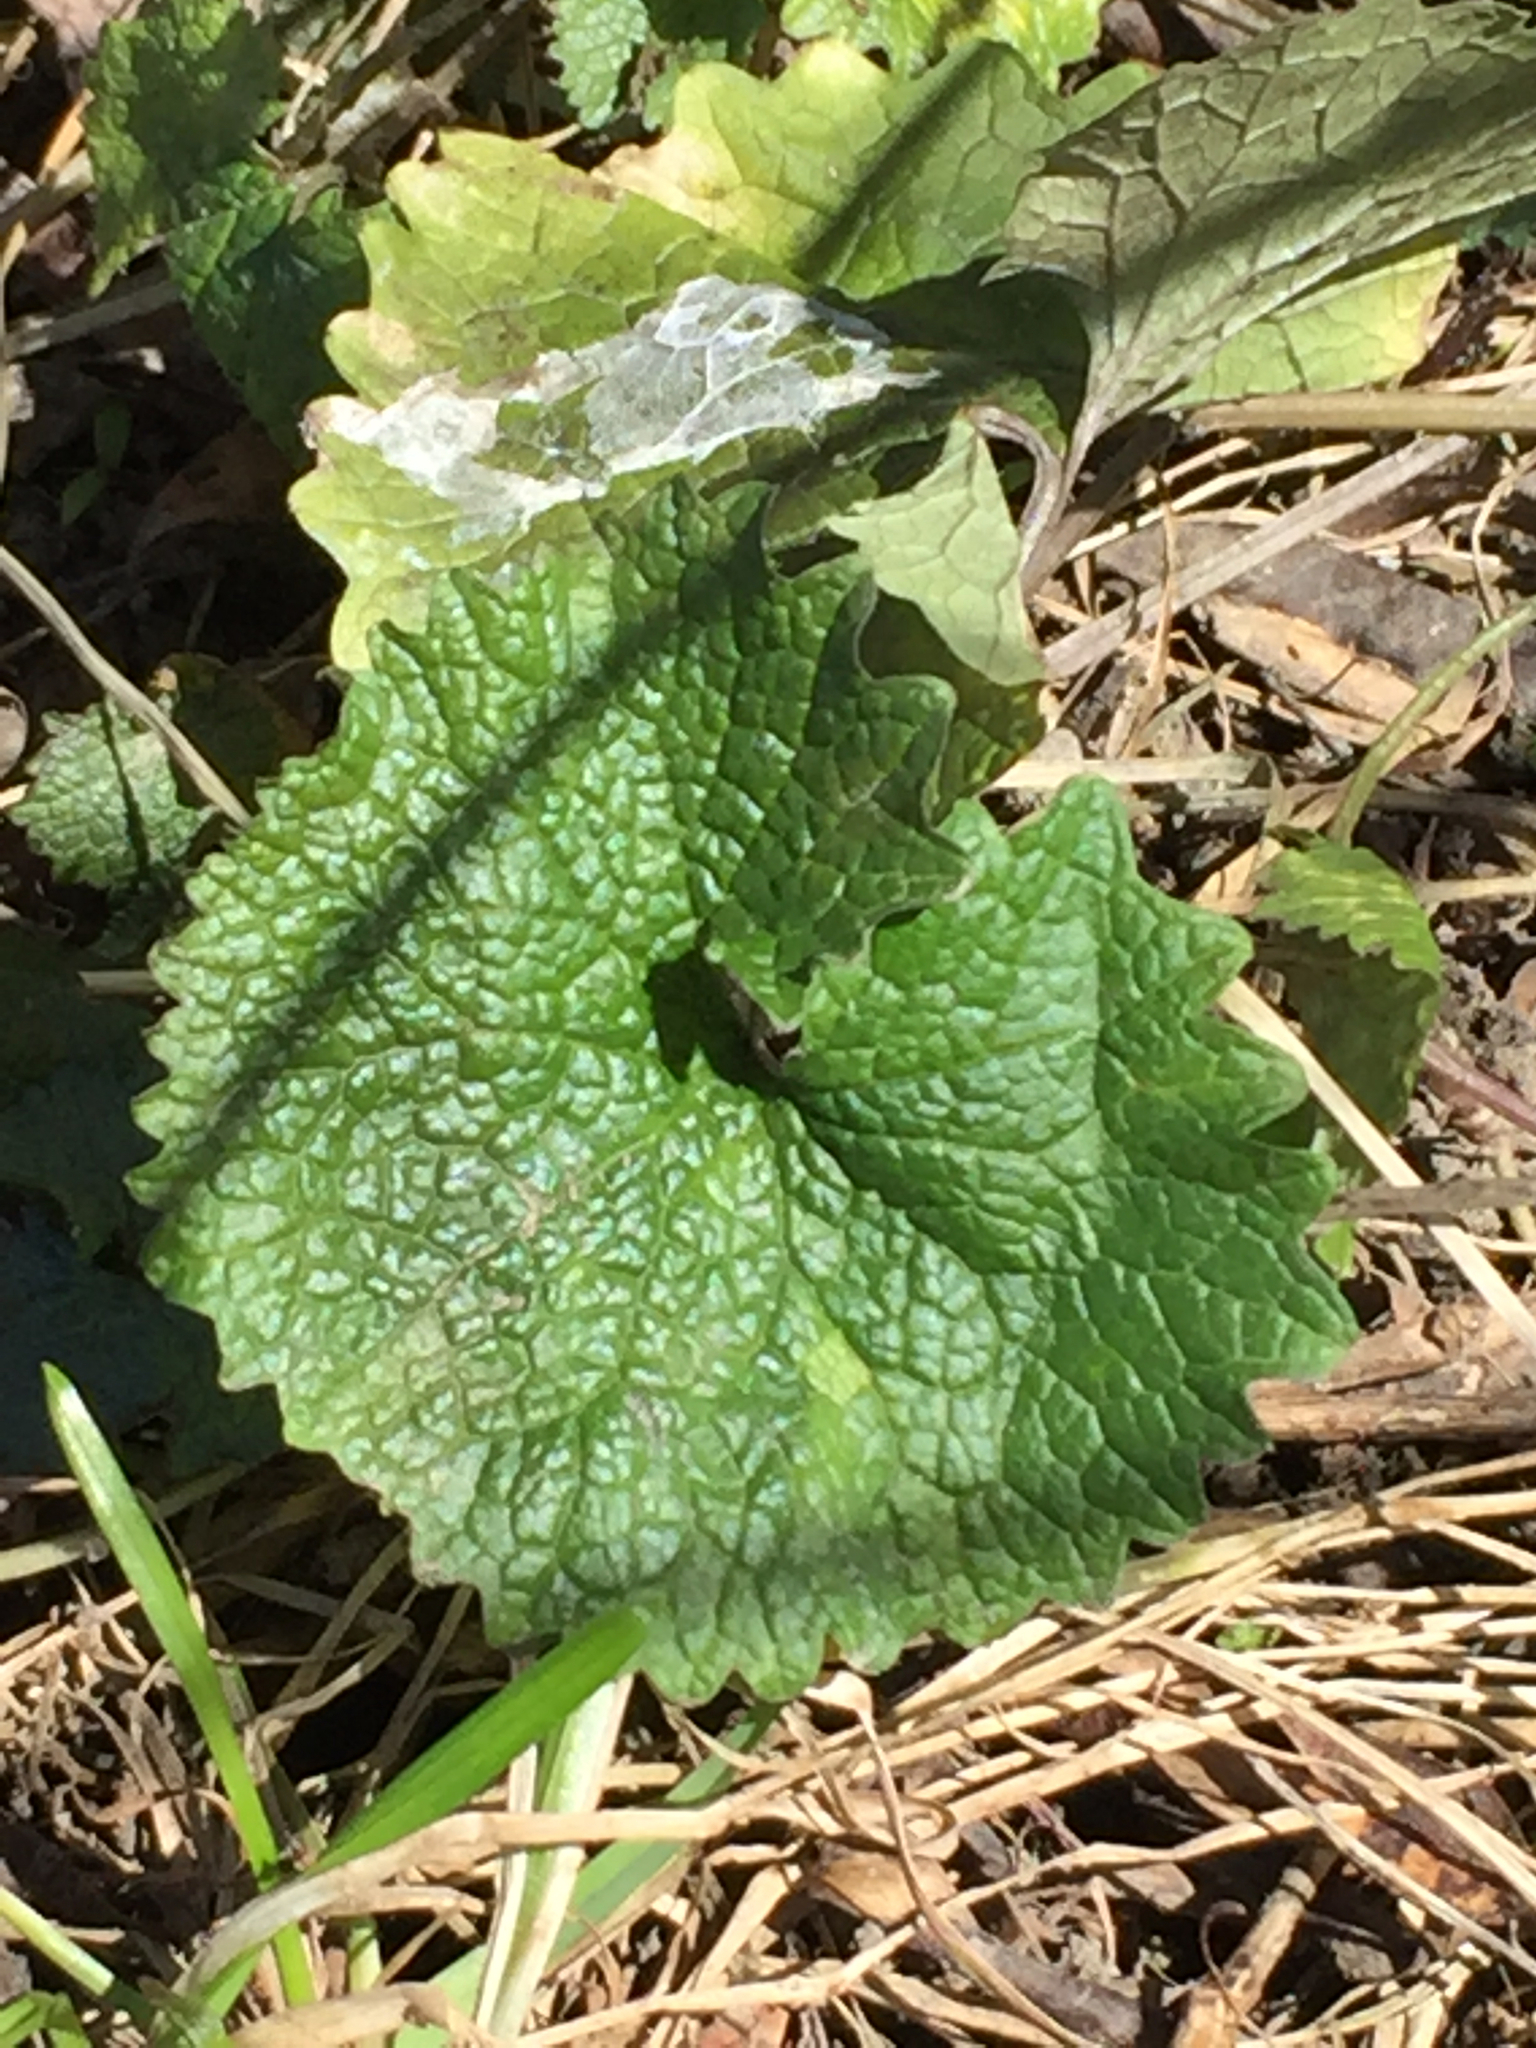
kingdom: Plantae
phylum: Tracheophyta
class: Magnoliopsida
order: Brassicales
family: Brassicaceae
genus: Alliaria
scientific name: Alliaria petiolata
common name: Garlic mustard
